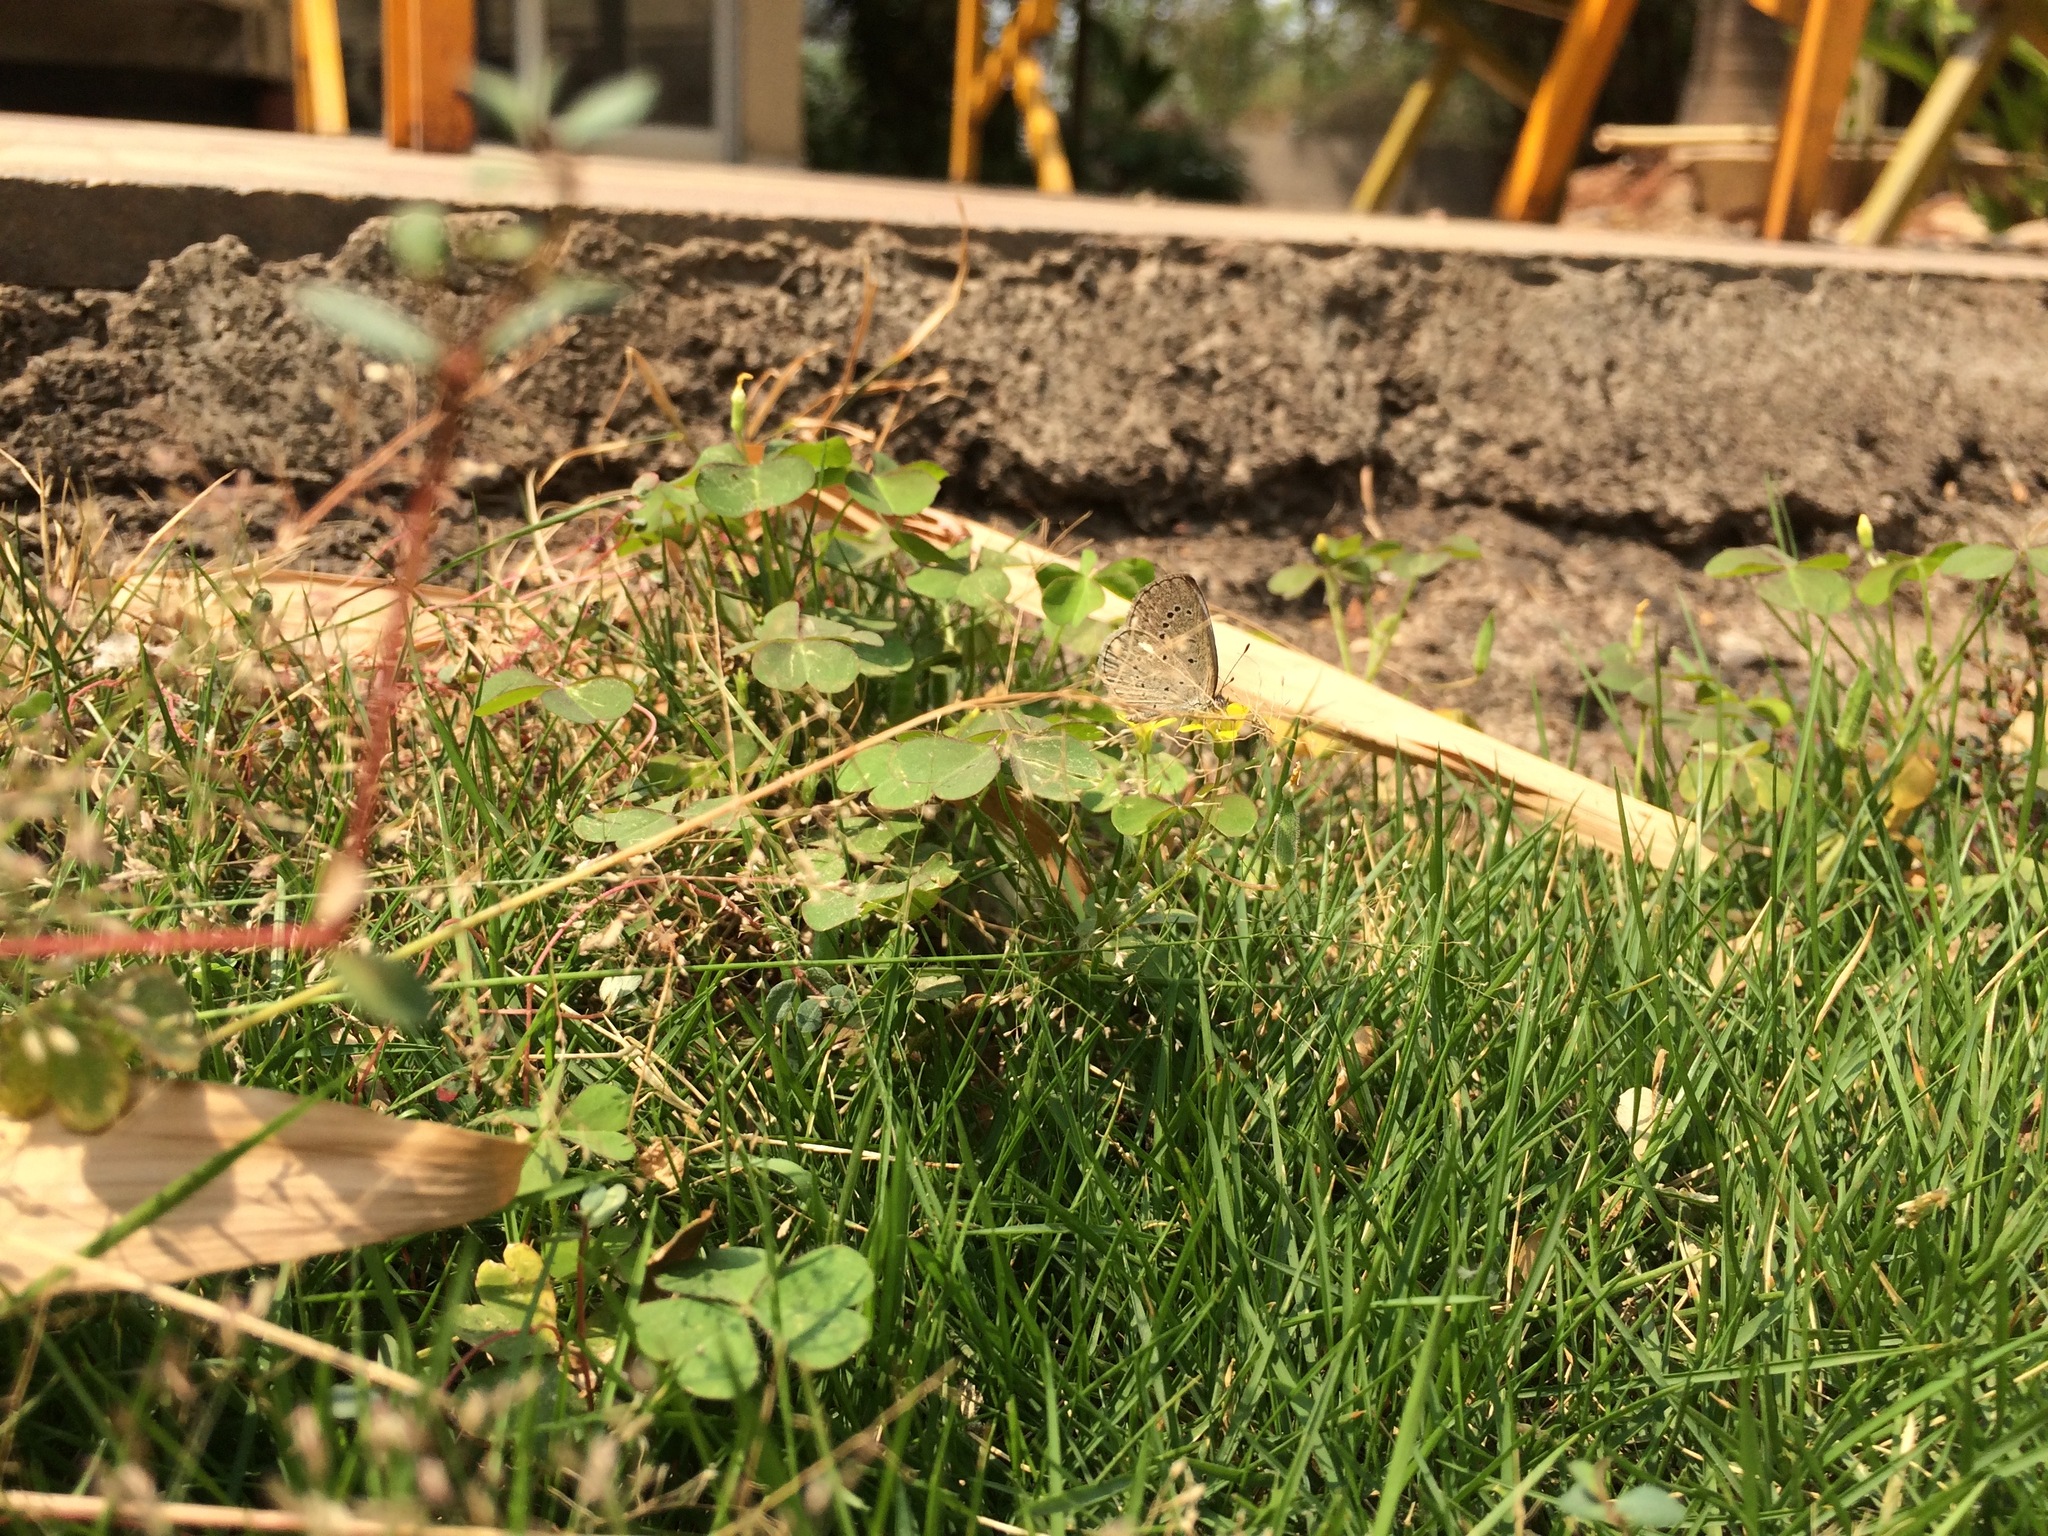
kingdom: Animalia
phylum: Arthropoda
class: Insecta
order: Lepidoptera
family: Lycaenidae
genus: Pseudozizeeria
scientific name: Pseudozizeeria maha
